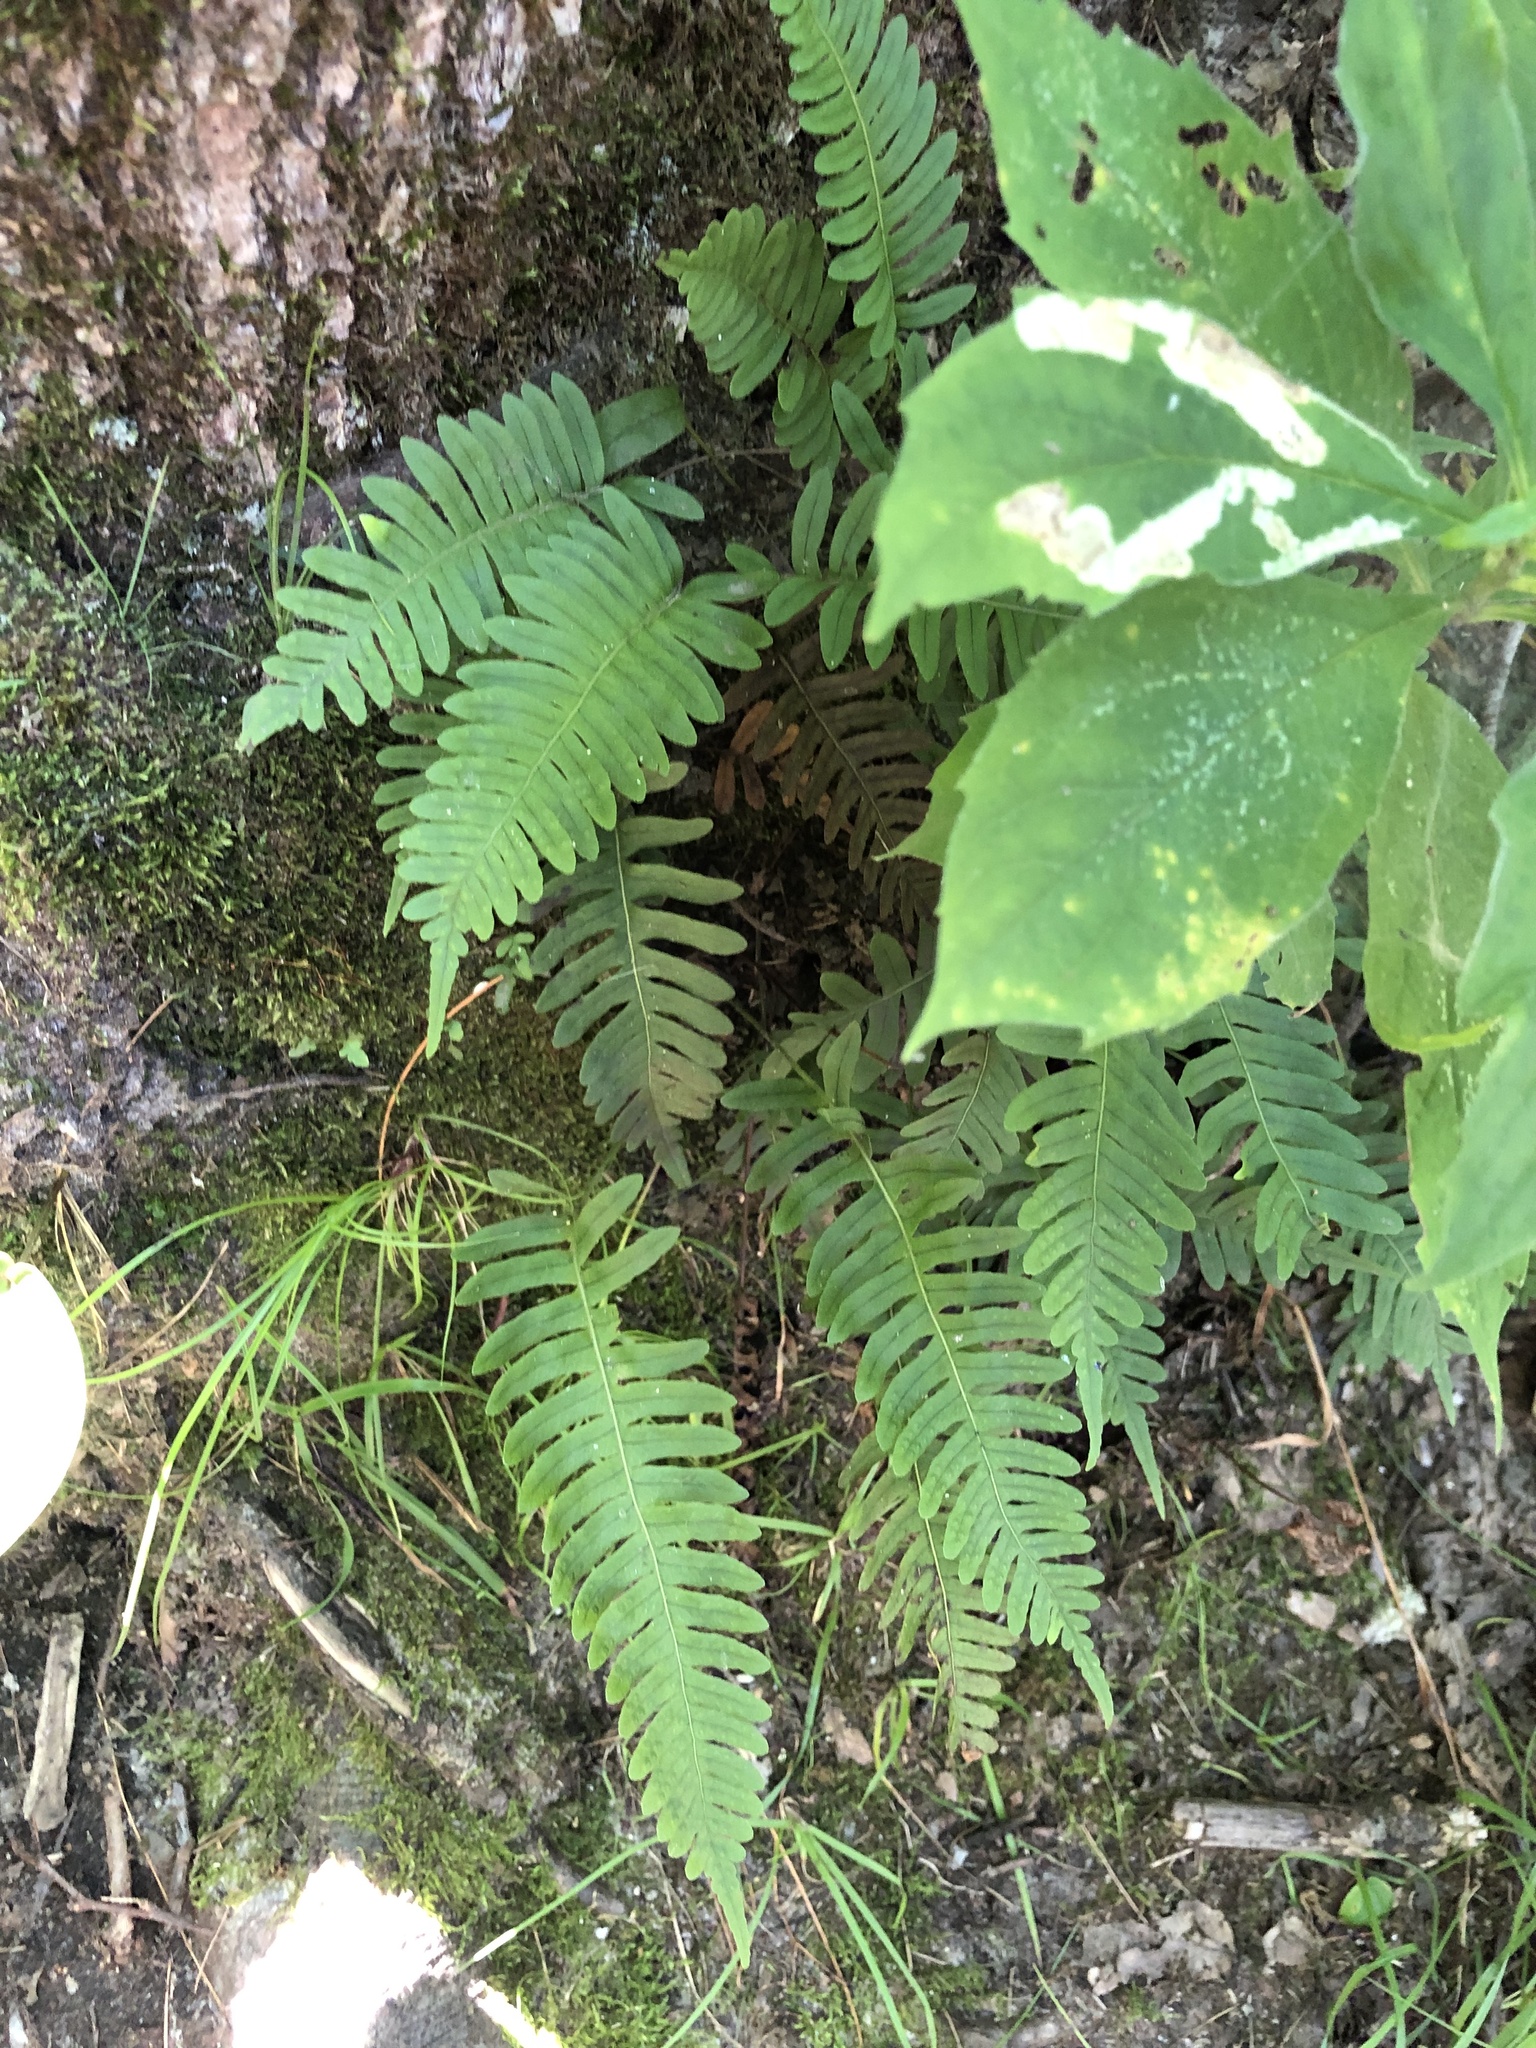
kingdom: Plantae
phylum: Tracheophyta
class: Polypodiopsida
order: Polypodiales
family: Polypodiaceae
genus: Polypodium
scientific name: Polypodium virginianum
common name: American wall fern
